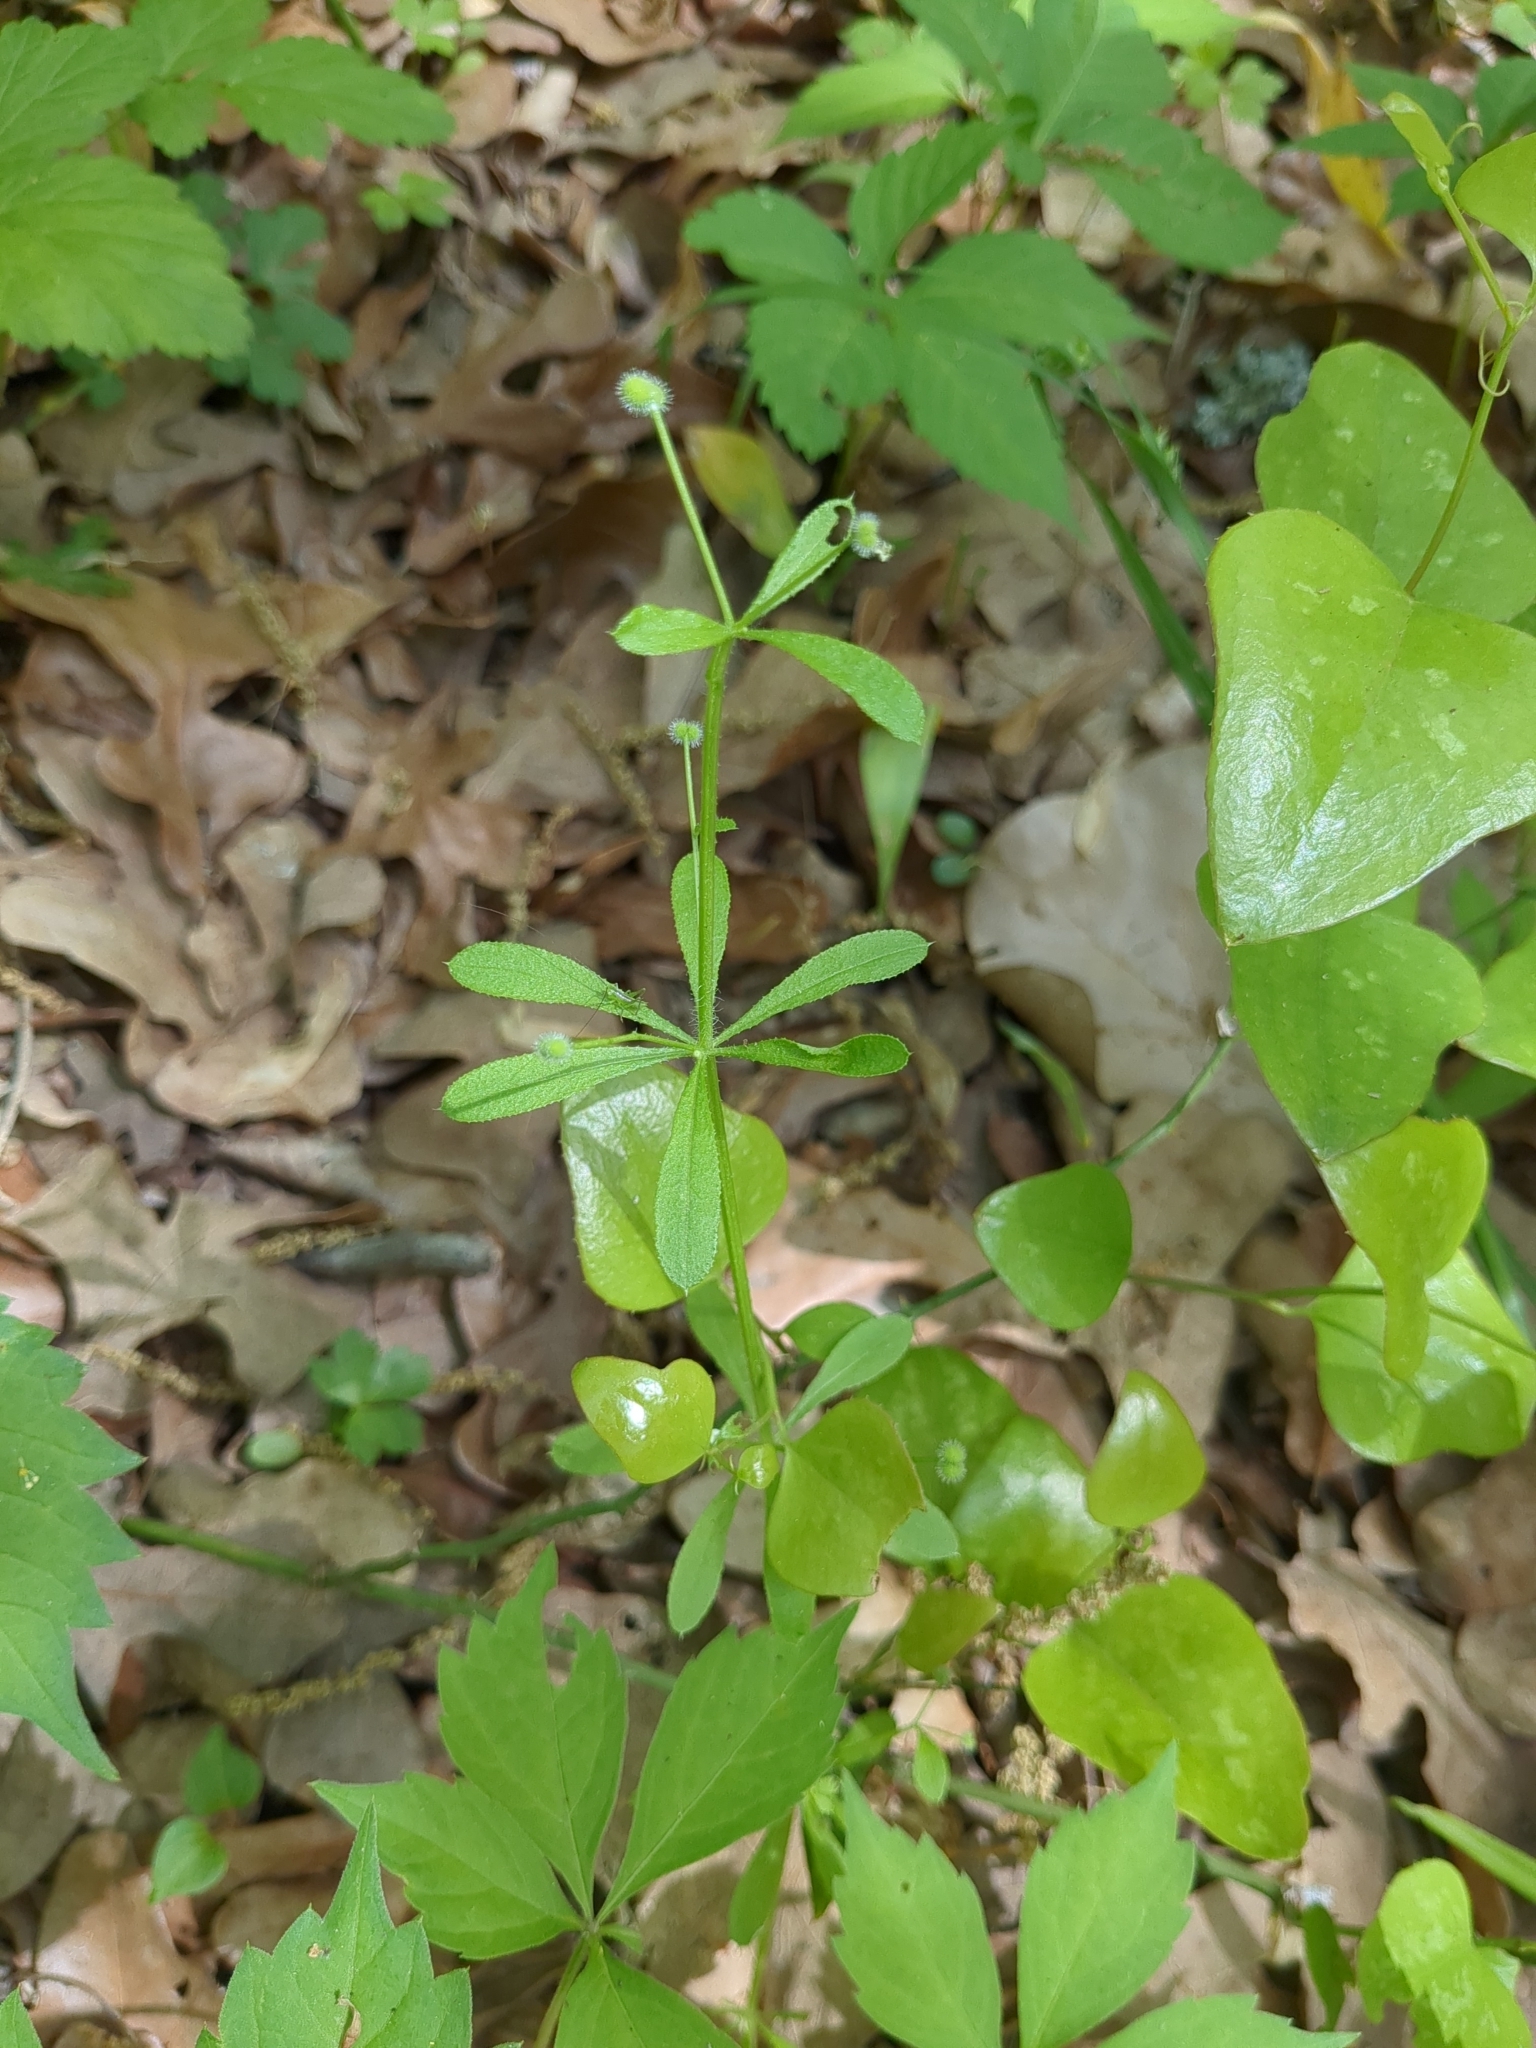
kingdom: Plantae
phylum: Tracheophyta
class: Magnoliopsida
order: Gentianales
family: Rubiaceae
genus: Galium
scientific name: Galium aparine
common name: Cleavers
